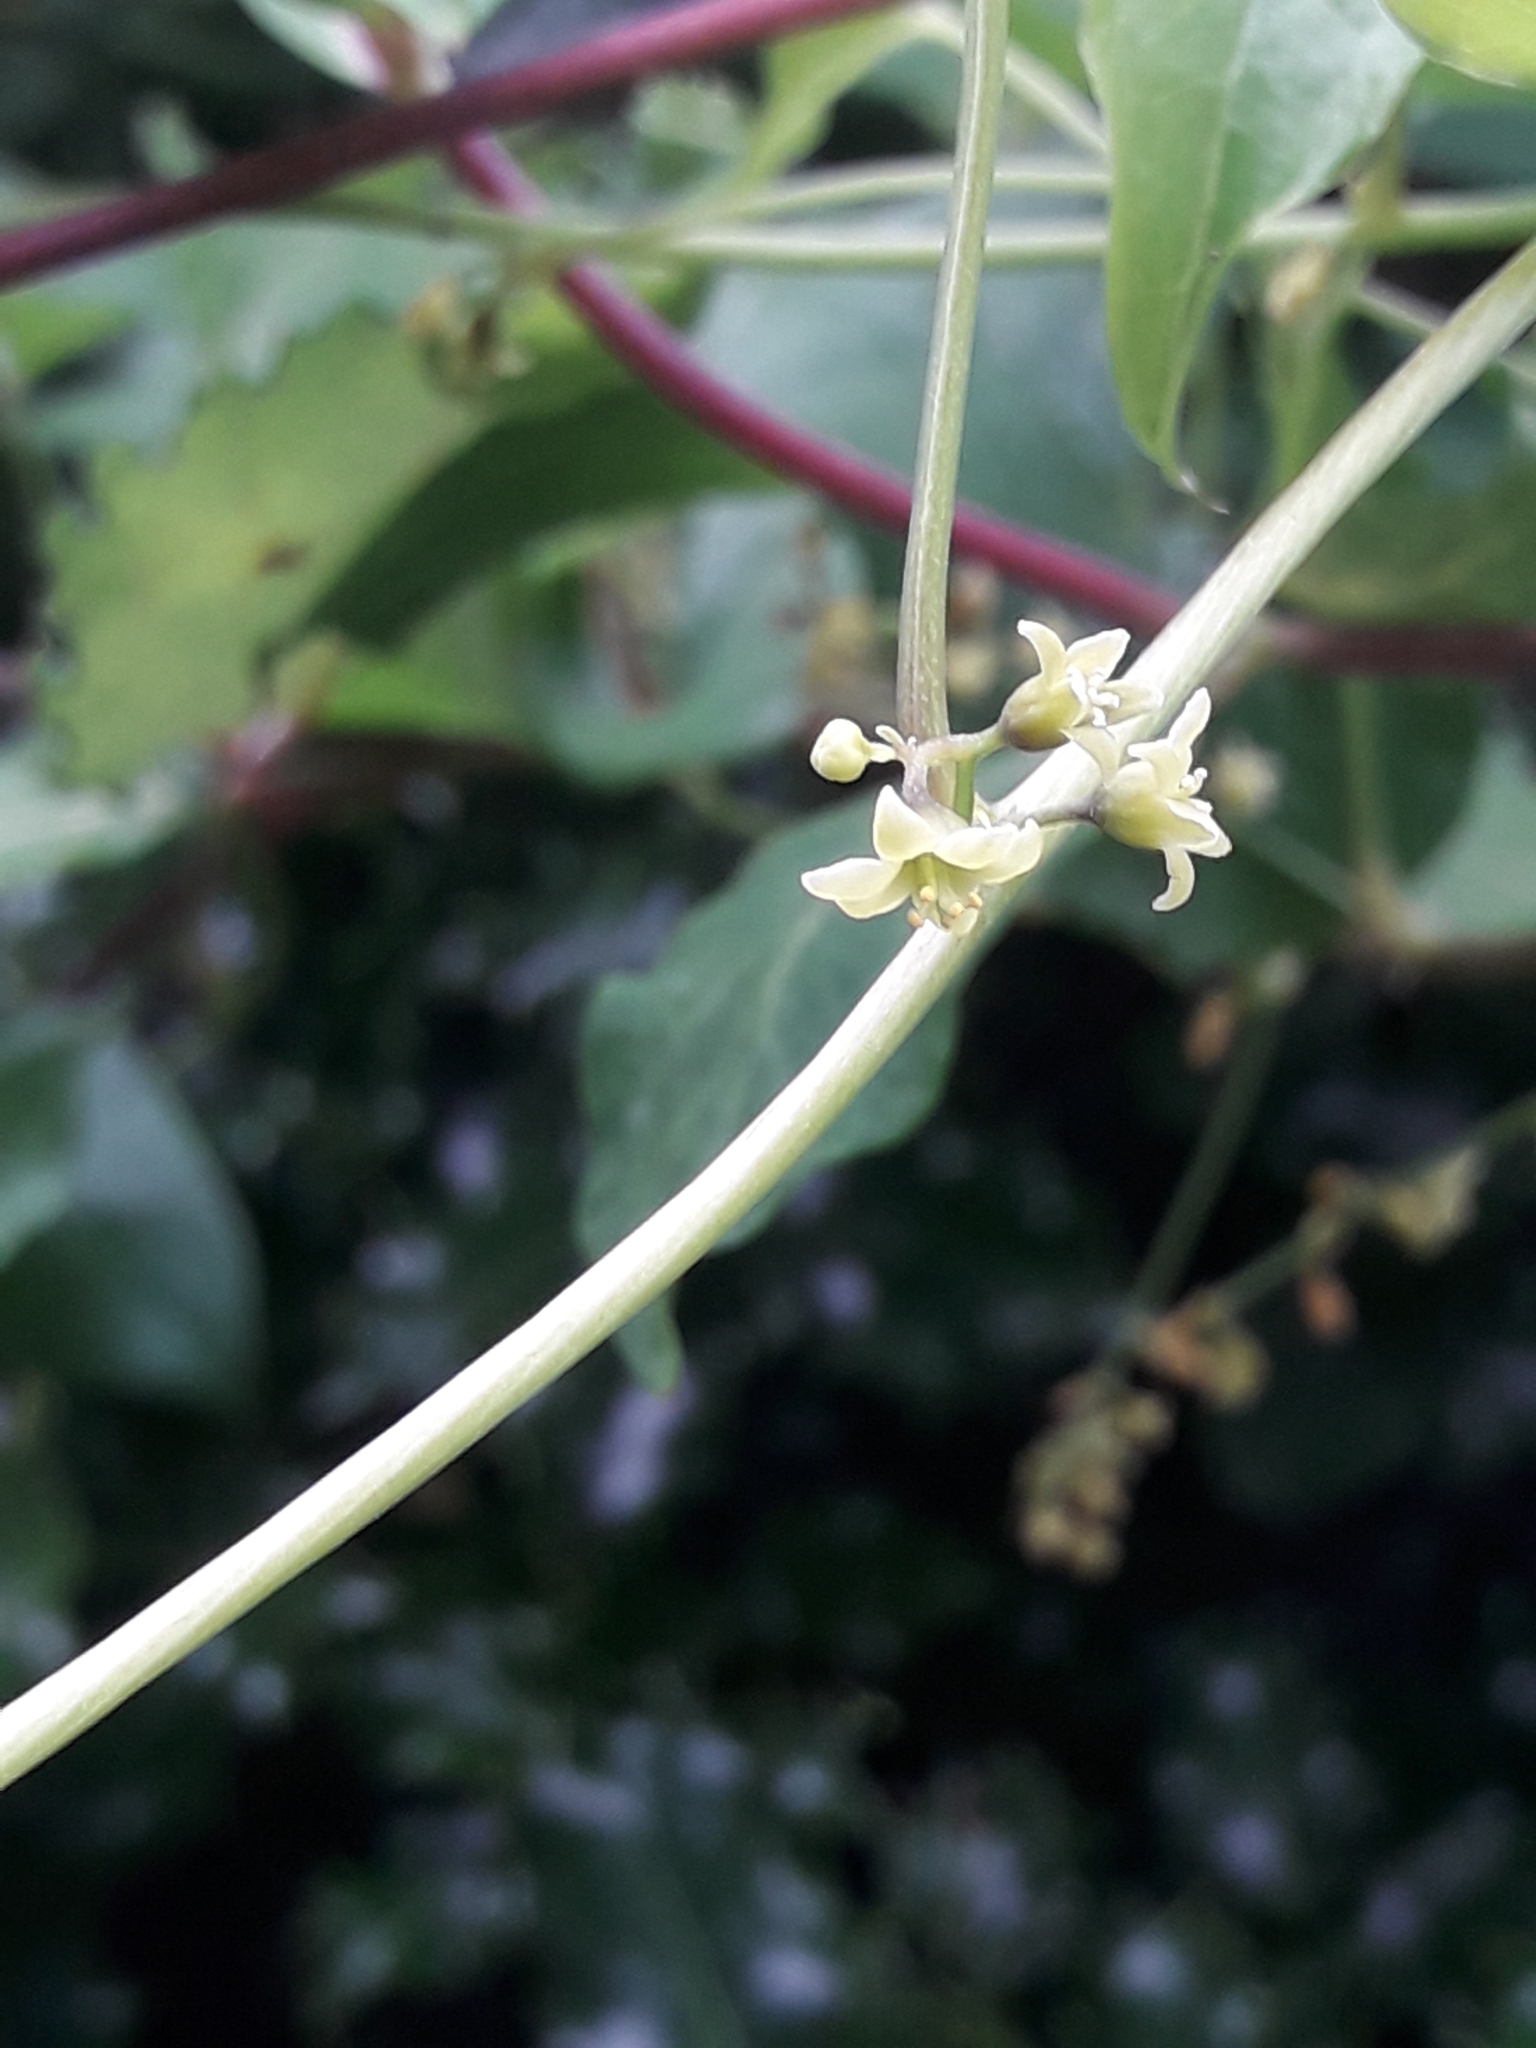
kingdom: Plantae
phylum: Tracheophyta
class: Liliopsida
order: Dioscoreales
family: Dioscoreaceae
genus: Dioscorea
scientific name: Dioscorea communis
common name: Black-bindweed
